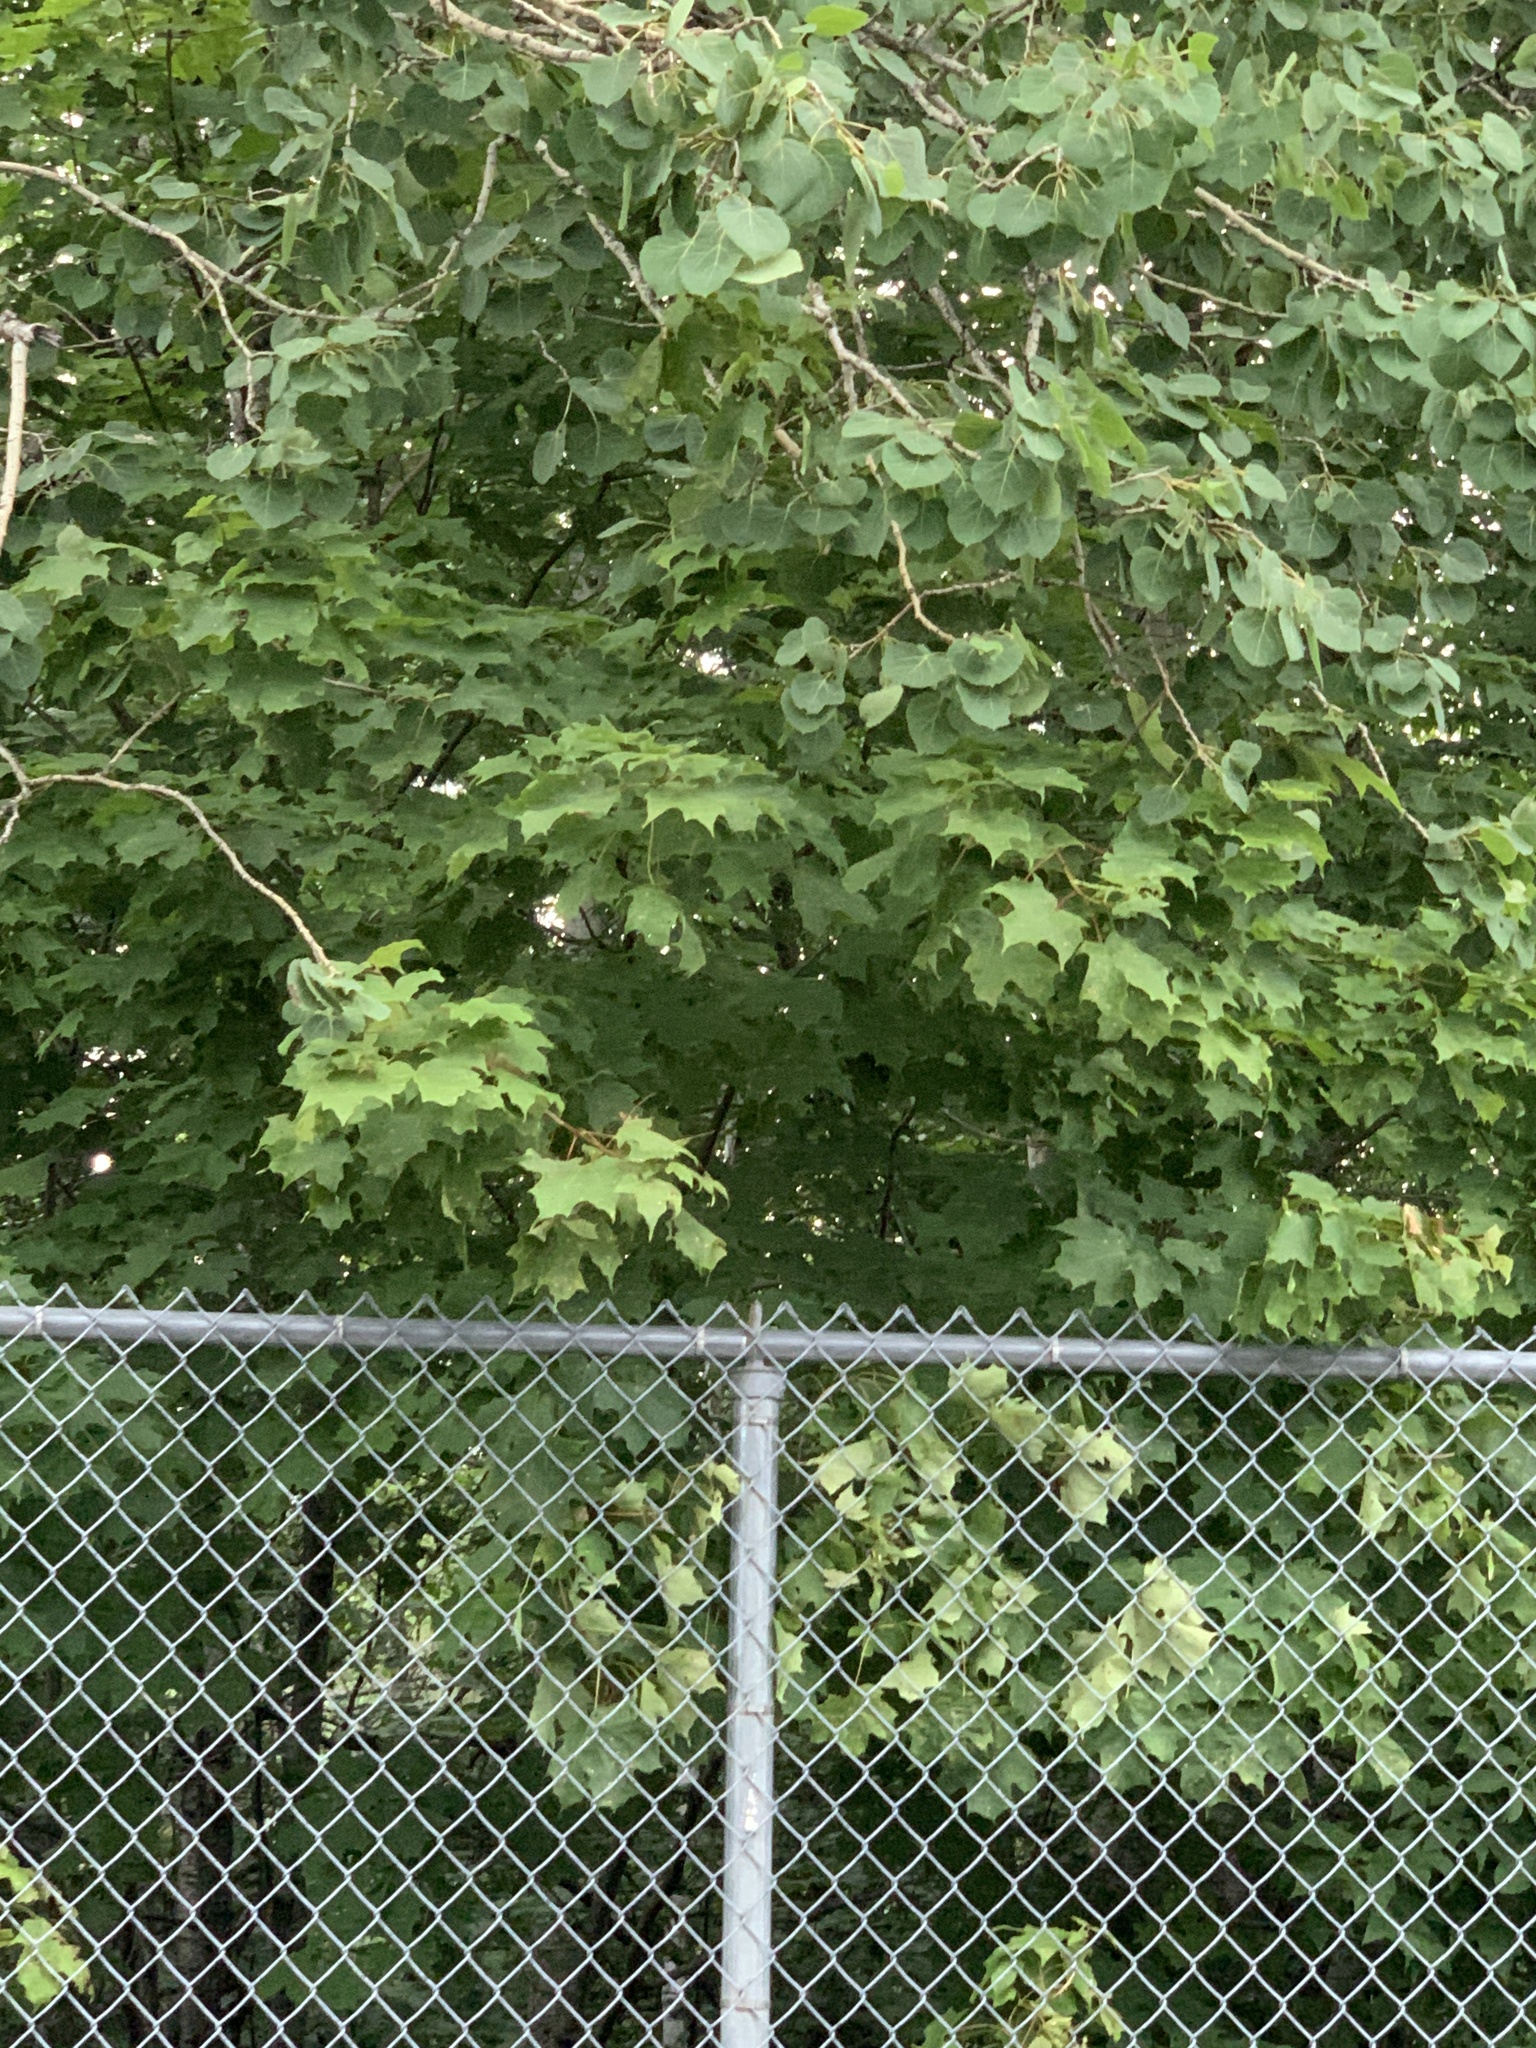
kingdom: Plantae
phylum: Tracheophyta
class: Magnoliopsida
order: Sapindales
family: Sapindaceae
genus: Acer
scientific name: Acer saccharum
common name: Sugar maple
